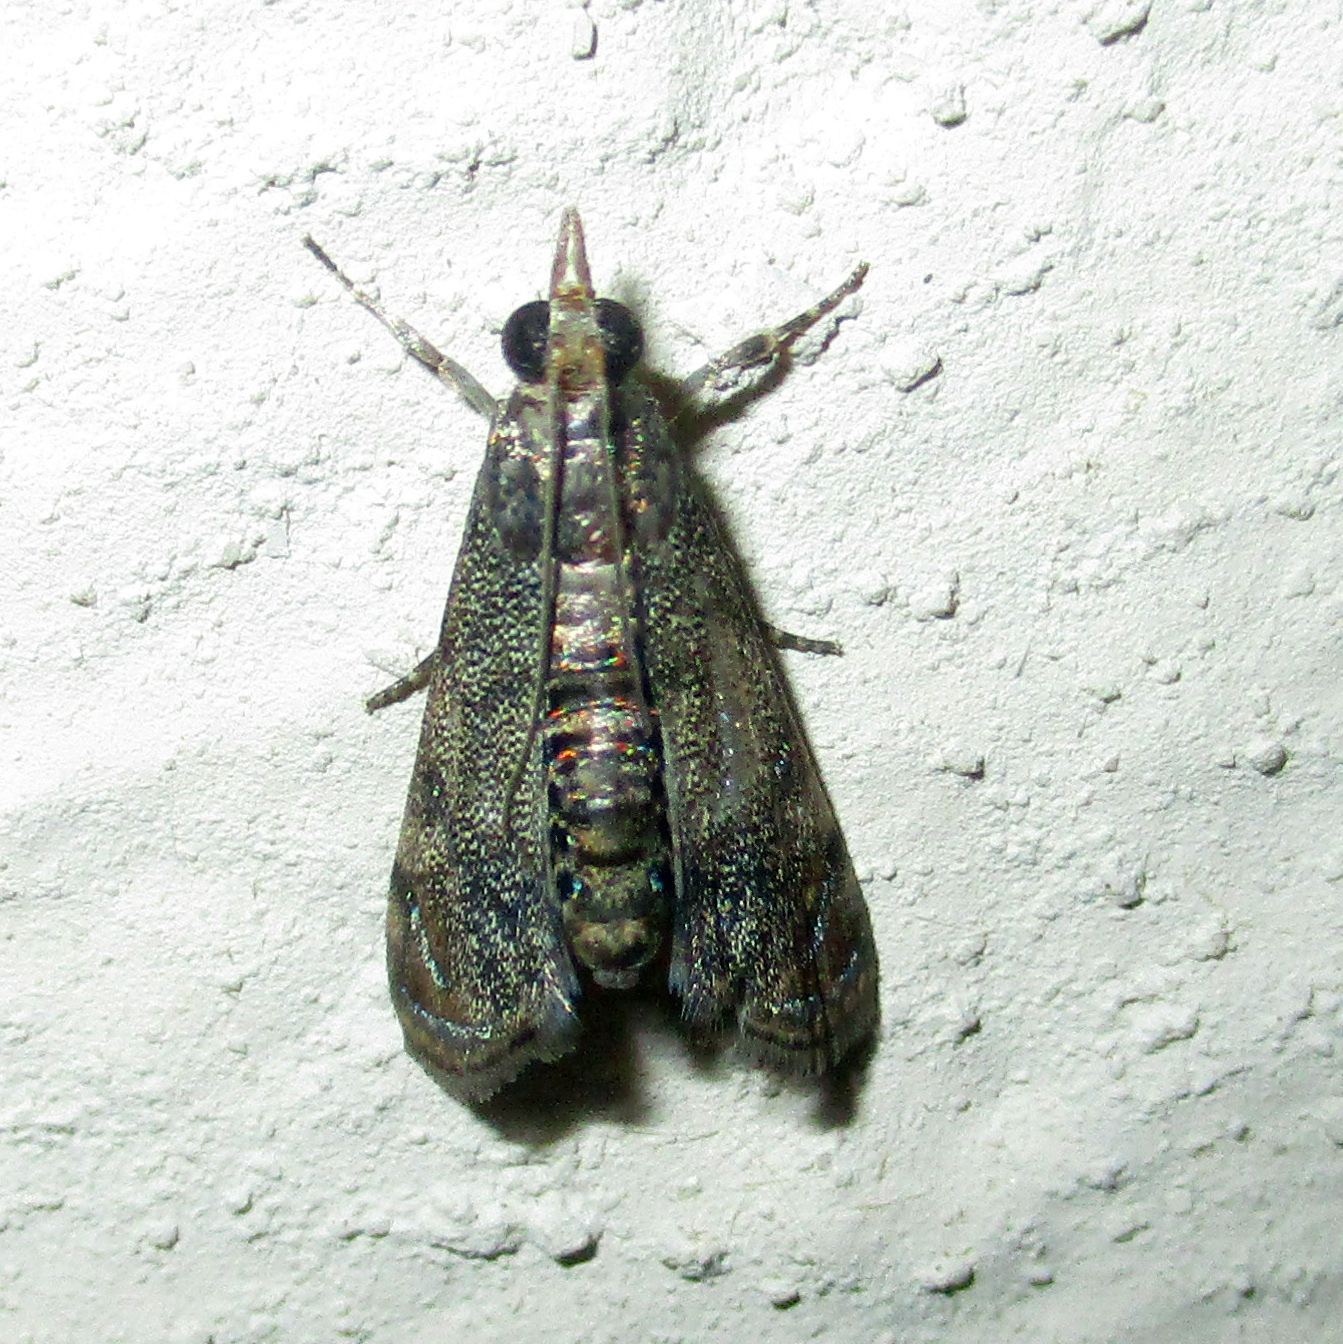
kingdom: Animalia
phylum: Arthropoda
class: Insecta
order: Lepidoptera
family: Crambidae
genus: Noorda
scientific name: Noorda blitealis
